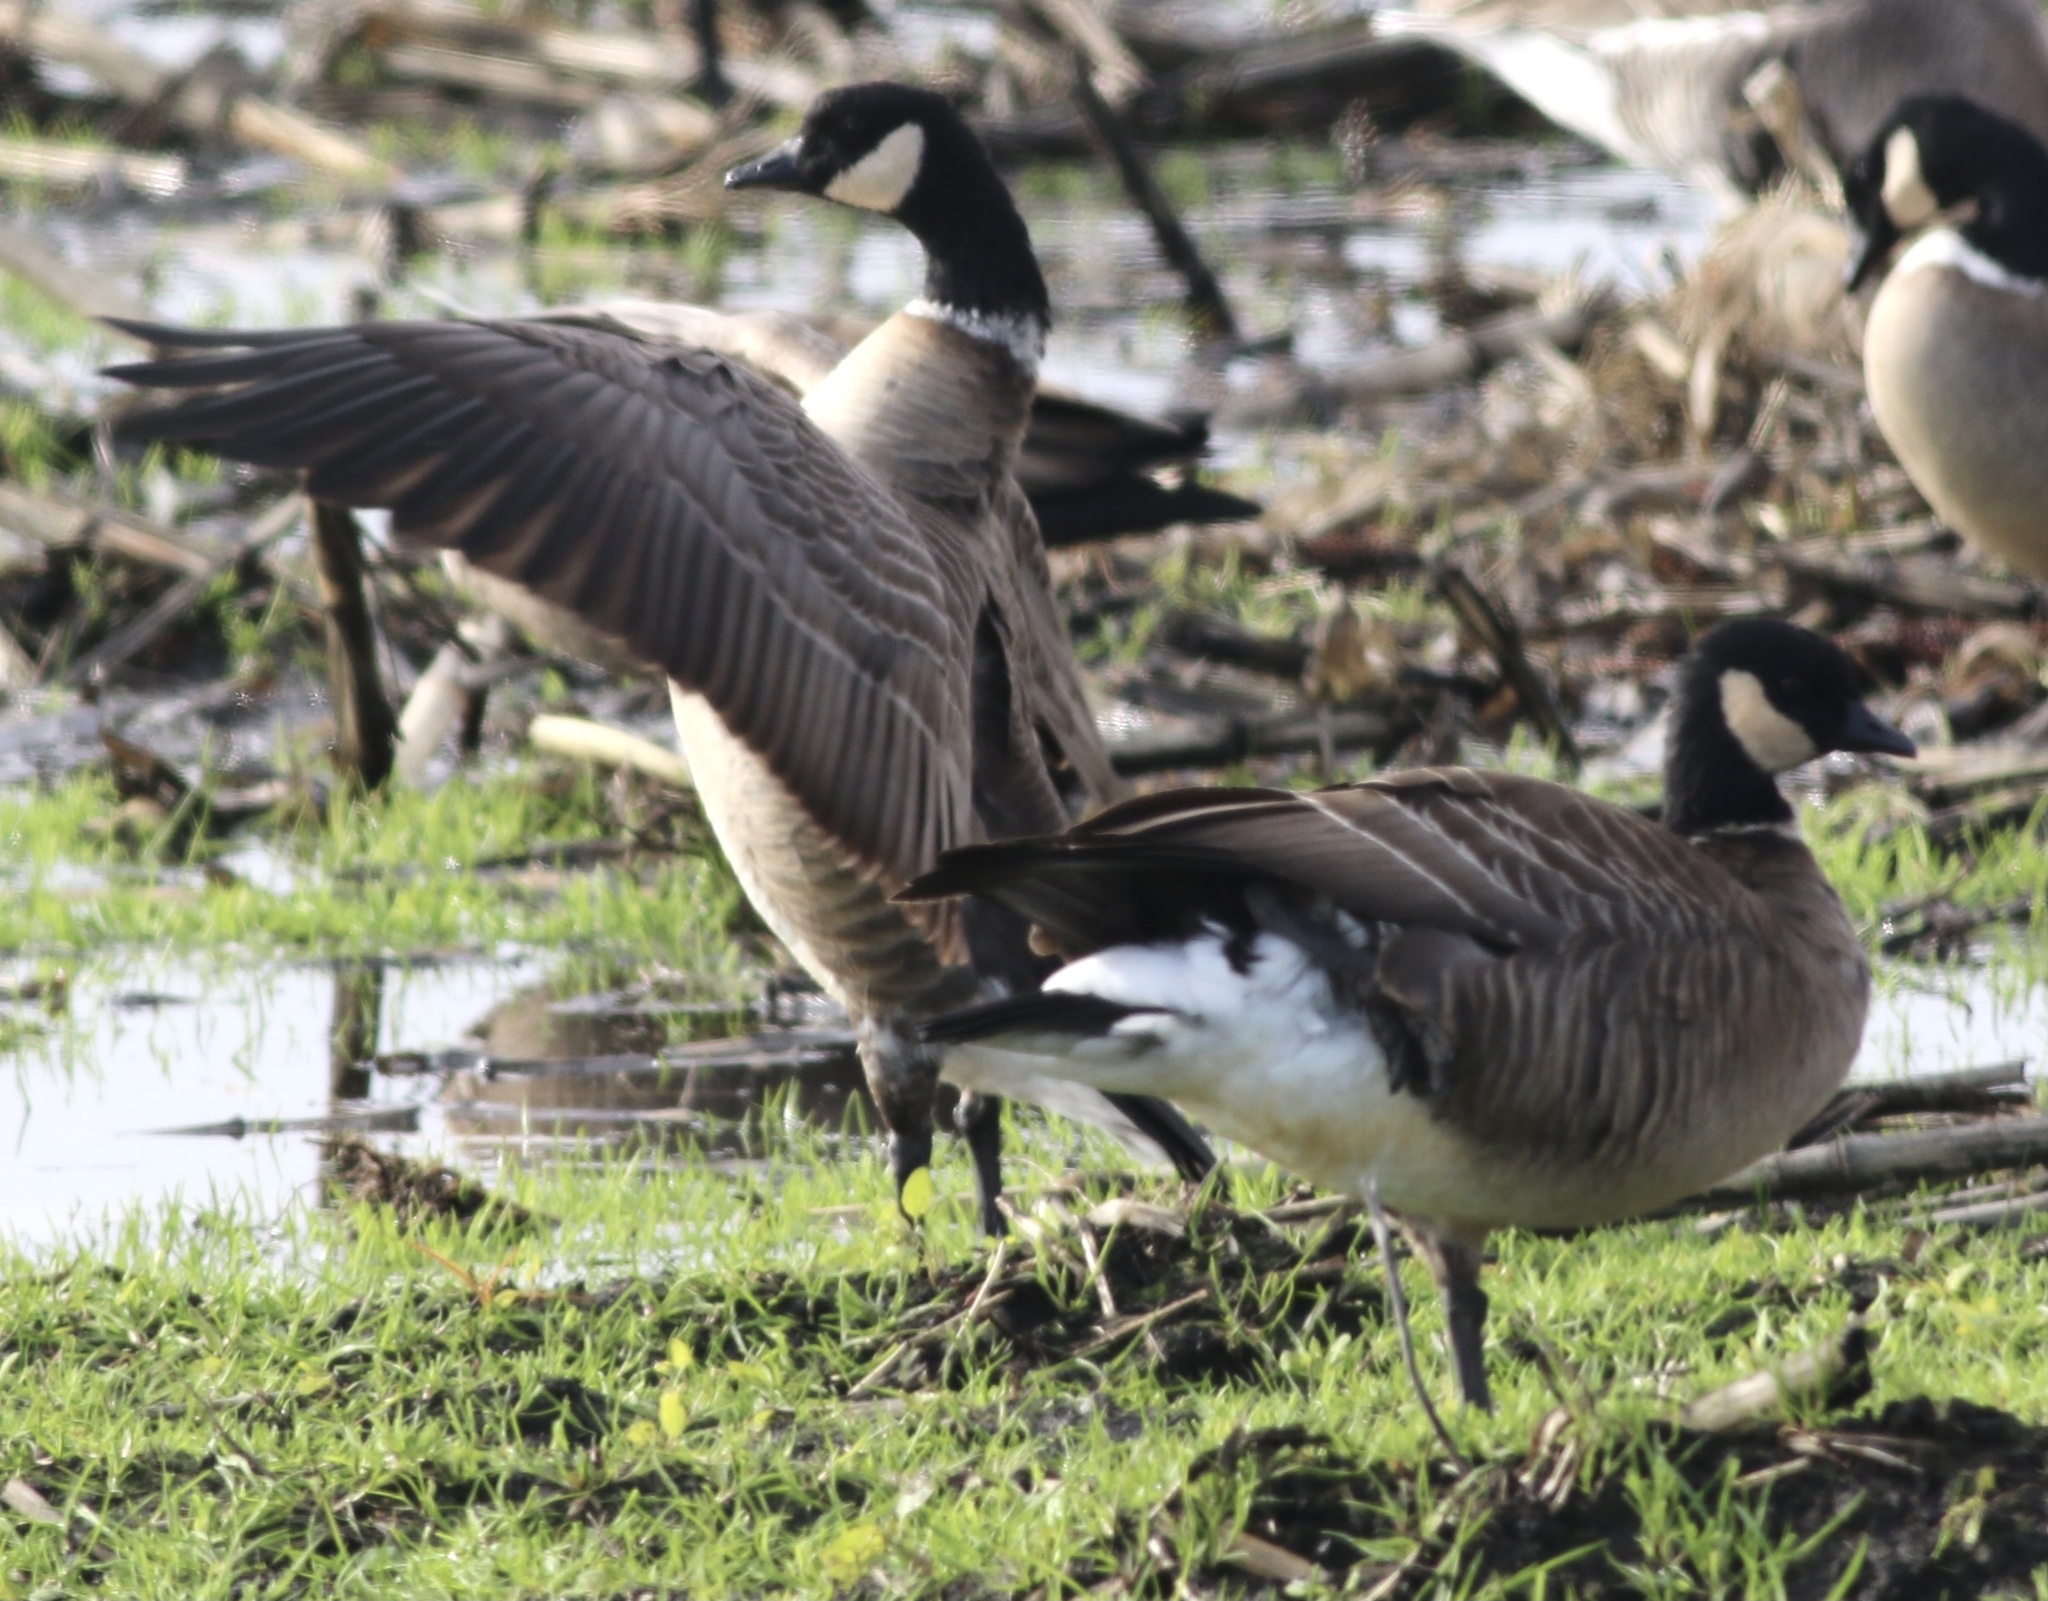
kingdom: Animalia
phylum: Chordata
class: Aves
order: Anseriformes
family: Anatidae
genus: Branta
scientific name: Branta hutchinsii
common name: Cackling goose
